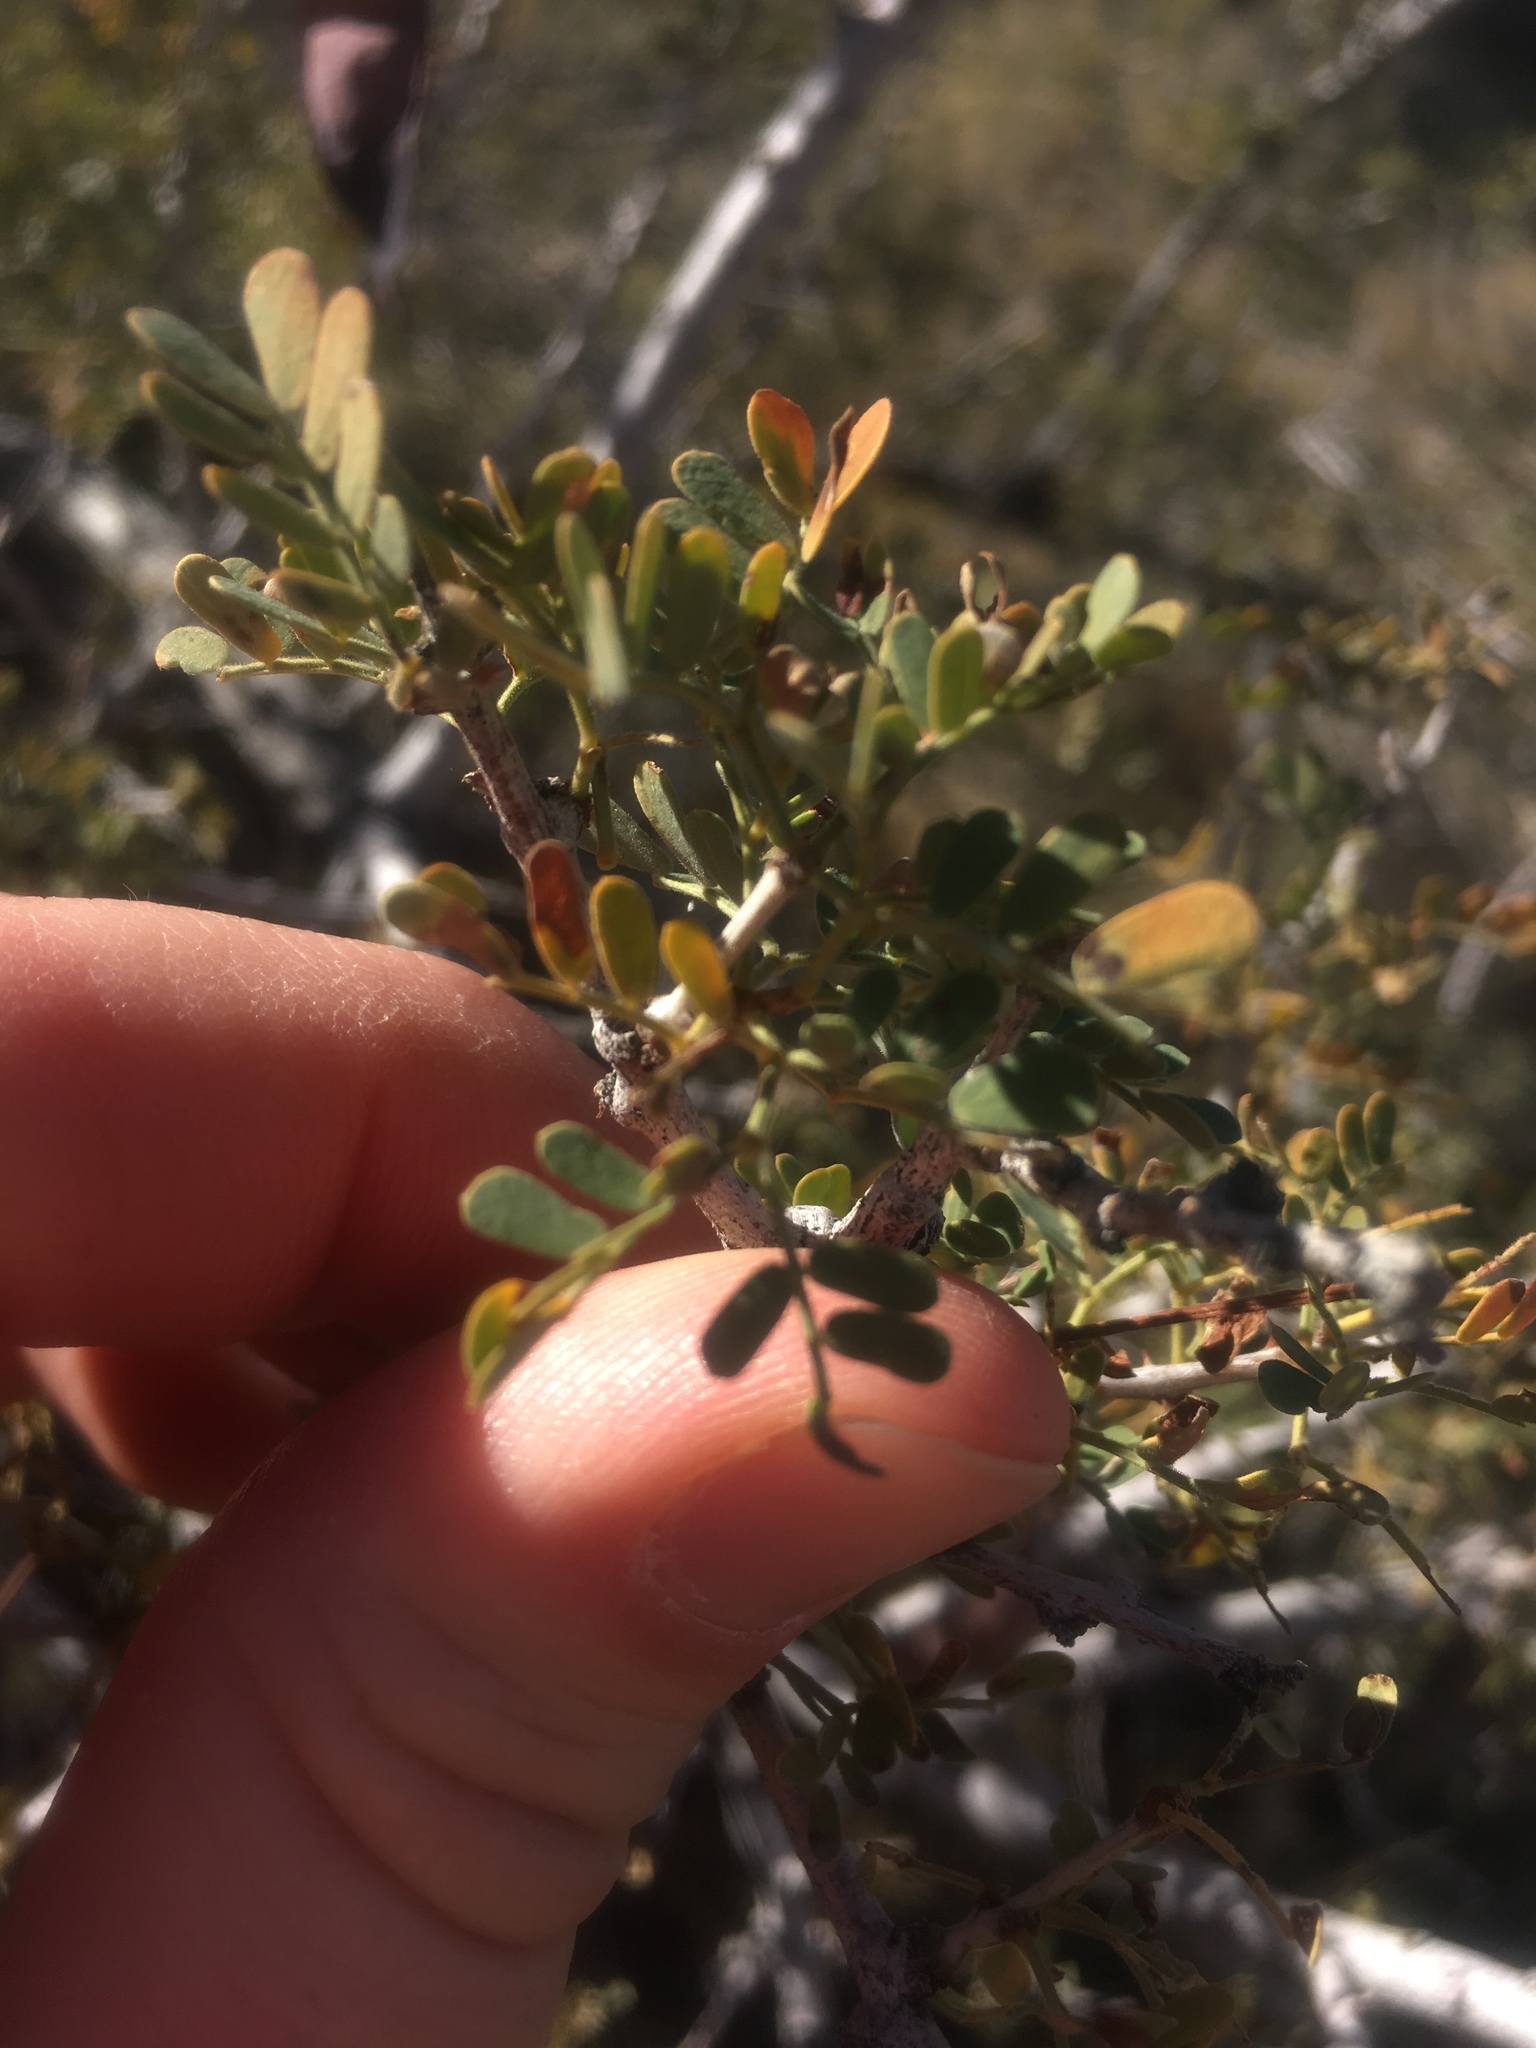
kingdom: Plantae
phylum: Tracheophyta
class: Magnoliopsida
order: Fabales
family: Fabaceae
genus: Senegalia
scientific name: Senegalia greggii
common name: Texas-mimosa
